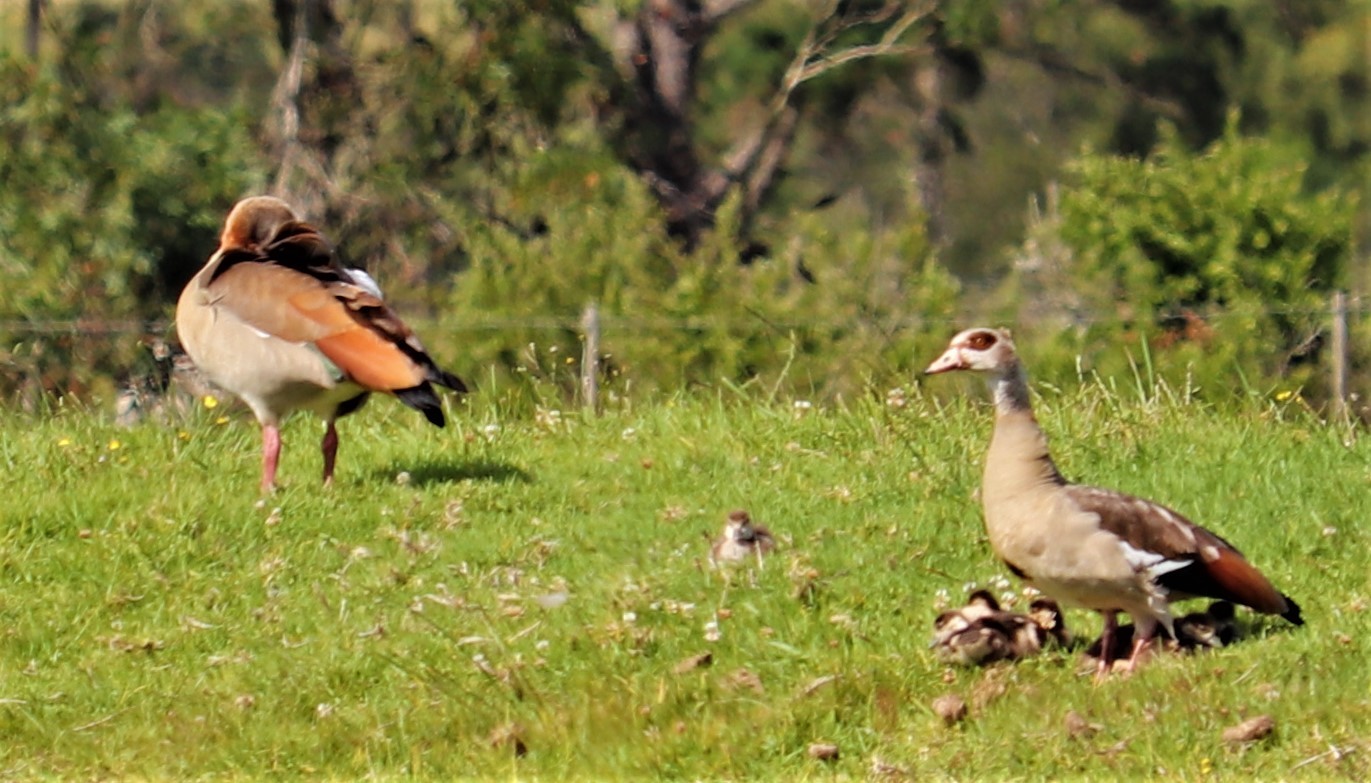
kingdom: Animalia
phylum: Chordata
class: Aves
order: Anseriformes
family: Anatidae
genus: Alopochen
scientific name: Alopochen aegyptiaca
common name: Egyptian goose
